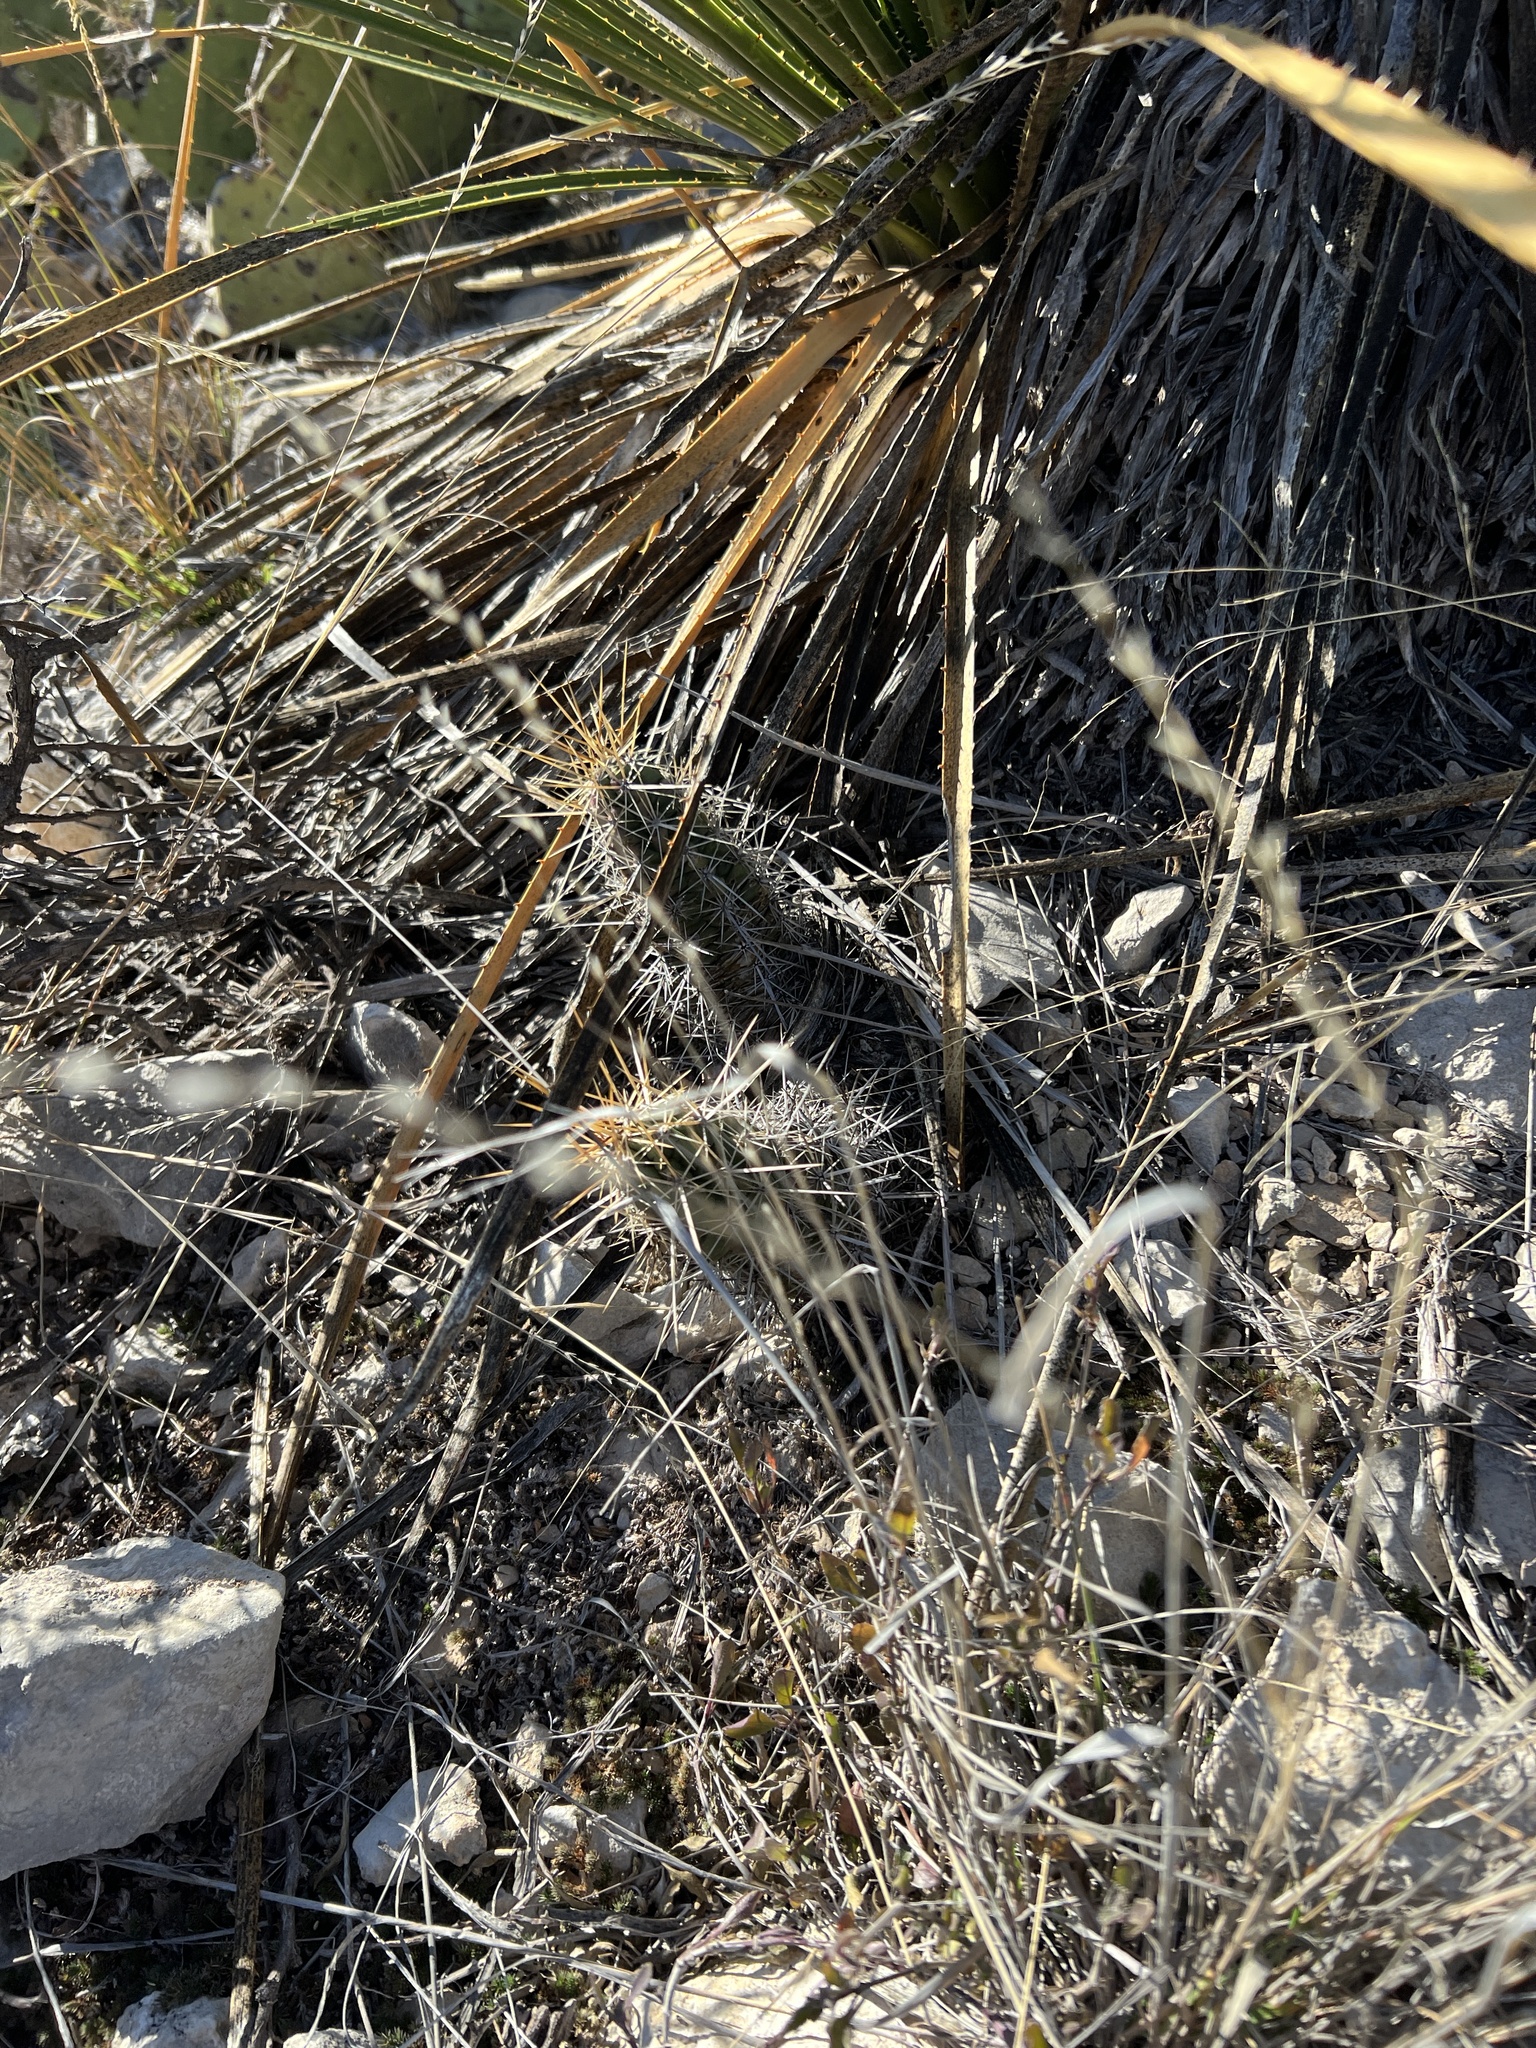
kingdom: Plantae
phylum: Tracheophyta
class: Magnoliopsida
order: Caryophyllales
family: Cactaceae
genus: Echinocereus
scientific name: Echinocereus enneacanthus
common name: Pitaya
